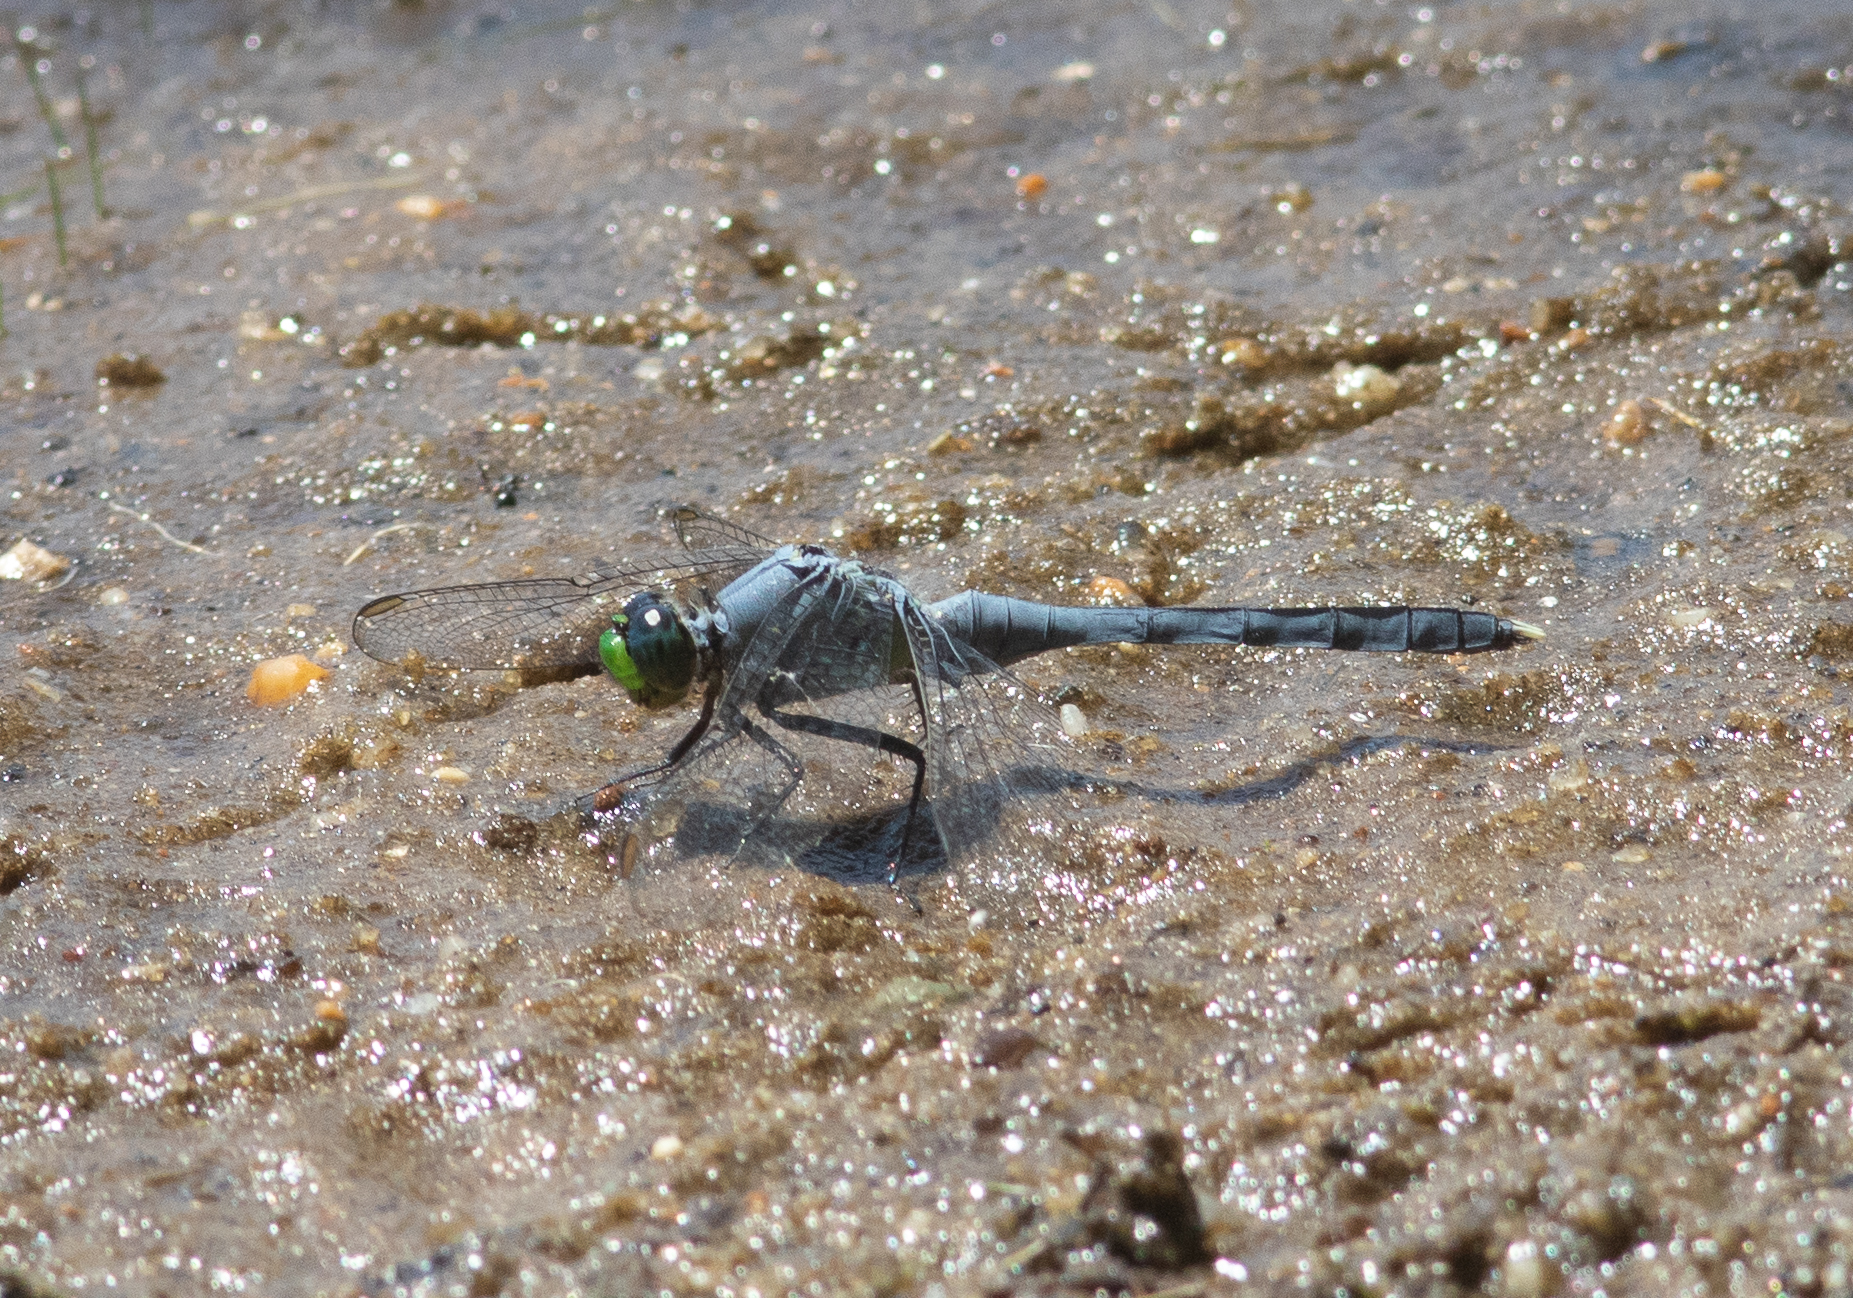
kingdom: Animalia
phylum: Arthropoda
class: Insecta
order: Odonata
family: Libellulidae
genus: Erythemis
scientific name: Erythemis simplicicollis
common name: Eastern pondhawk
